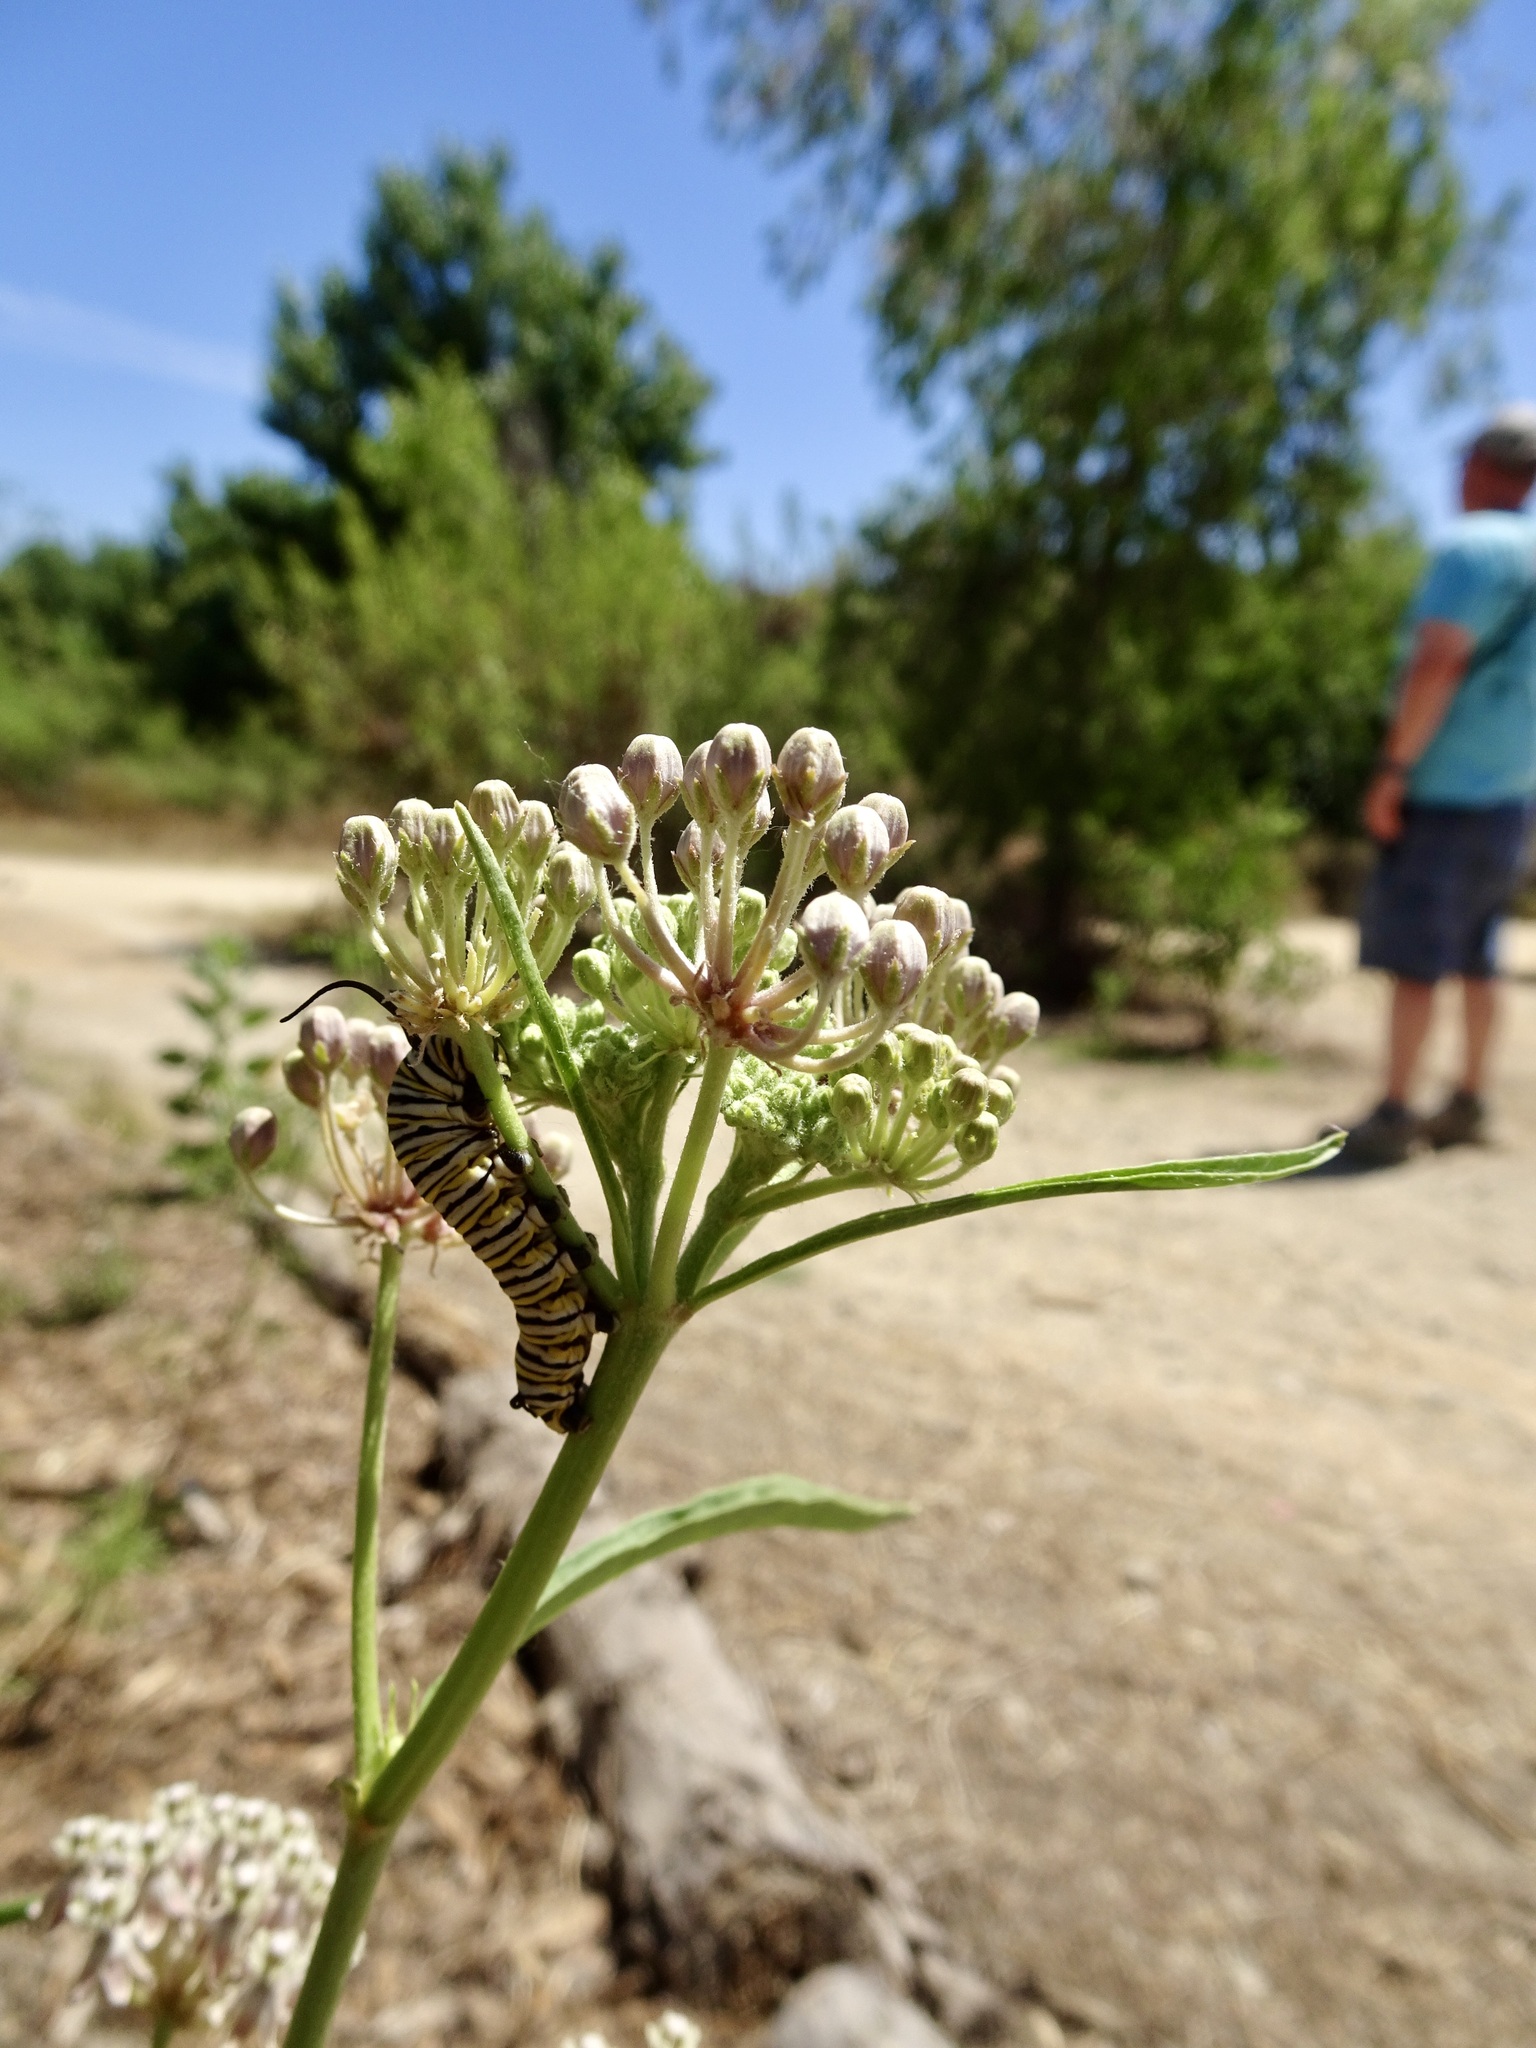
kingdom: Animalia
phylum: Arthropoda
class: Insecta
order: Lepidoptera
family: Nymphalidae
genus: Danaus
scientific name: Danaus plexippus
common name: Monarch
